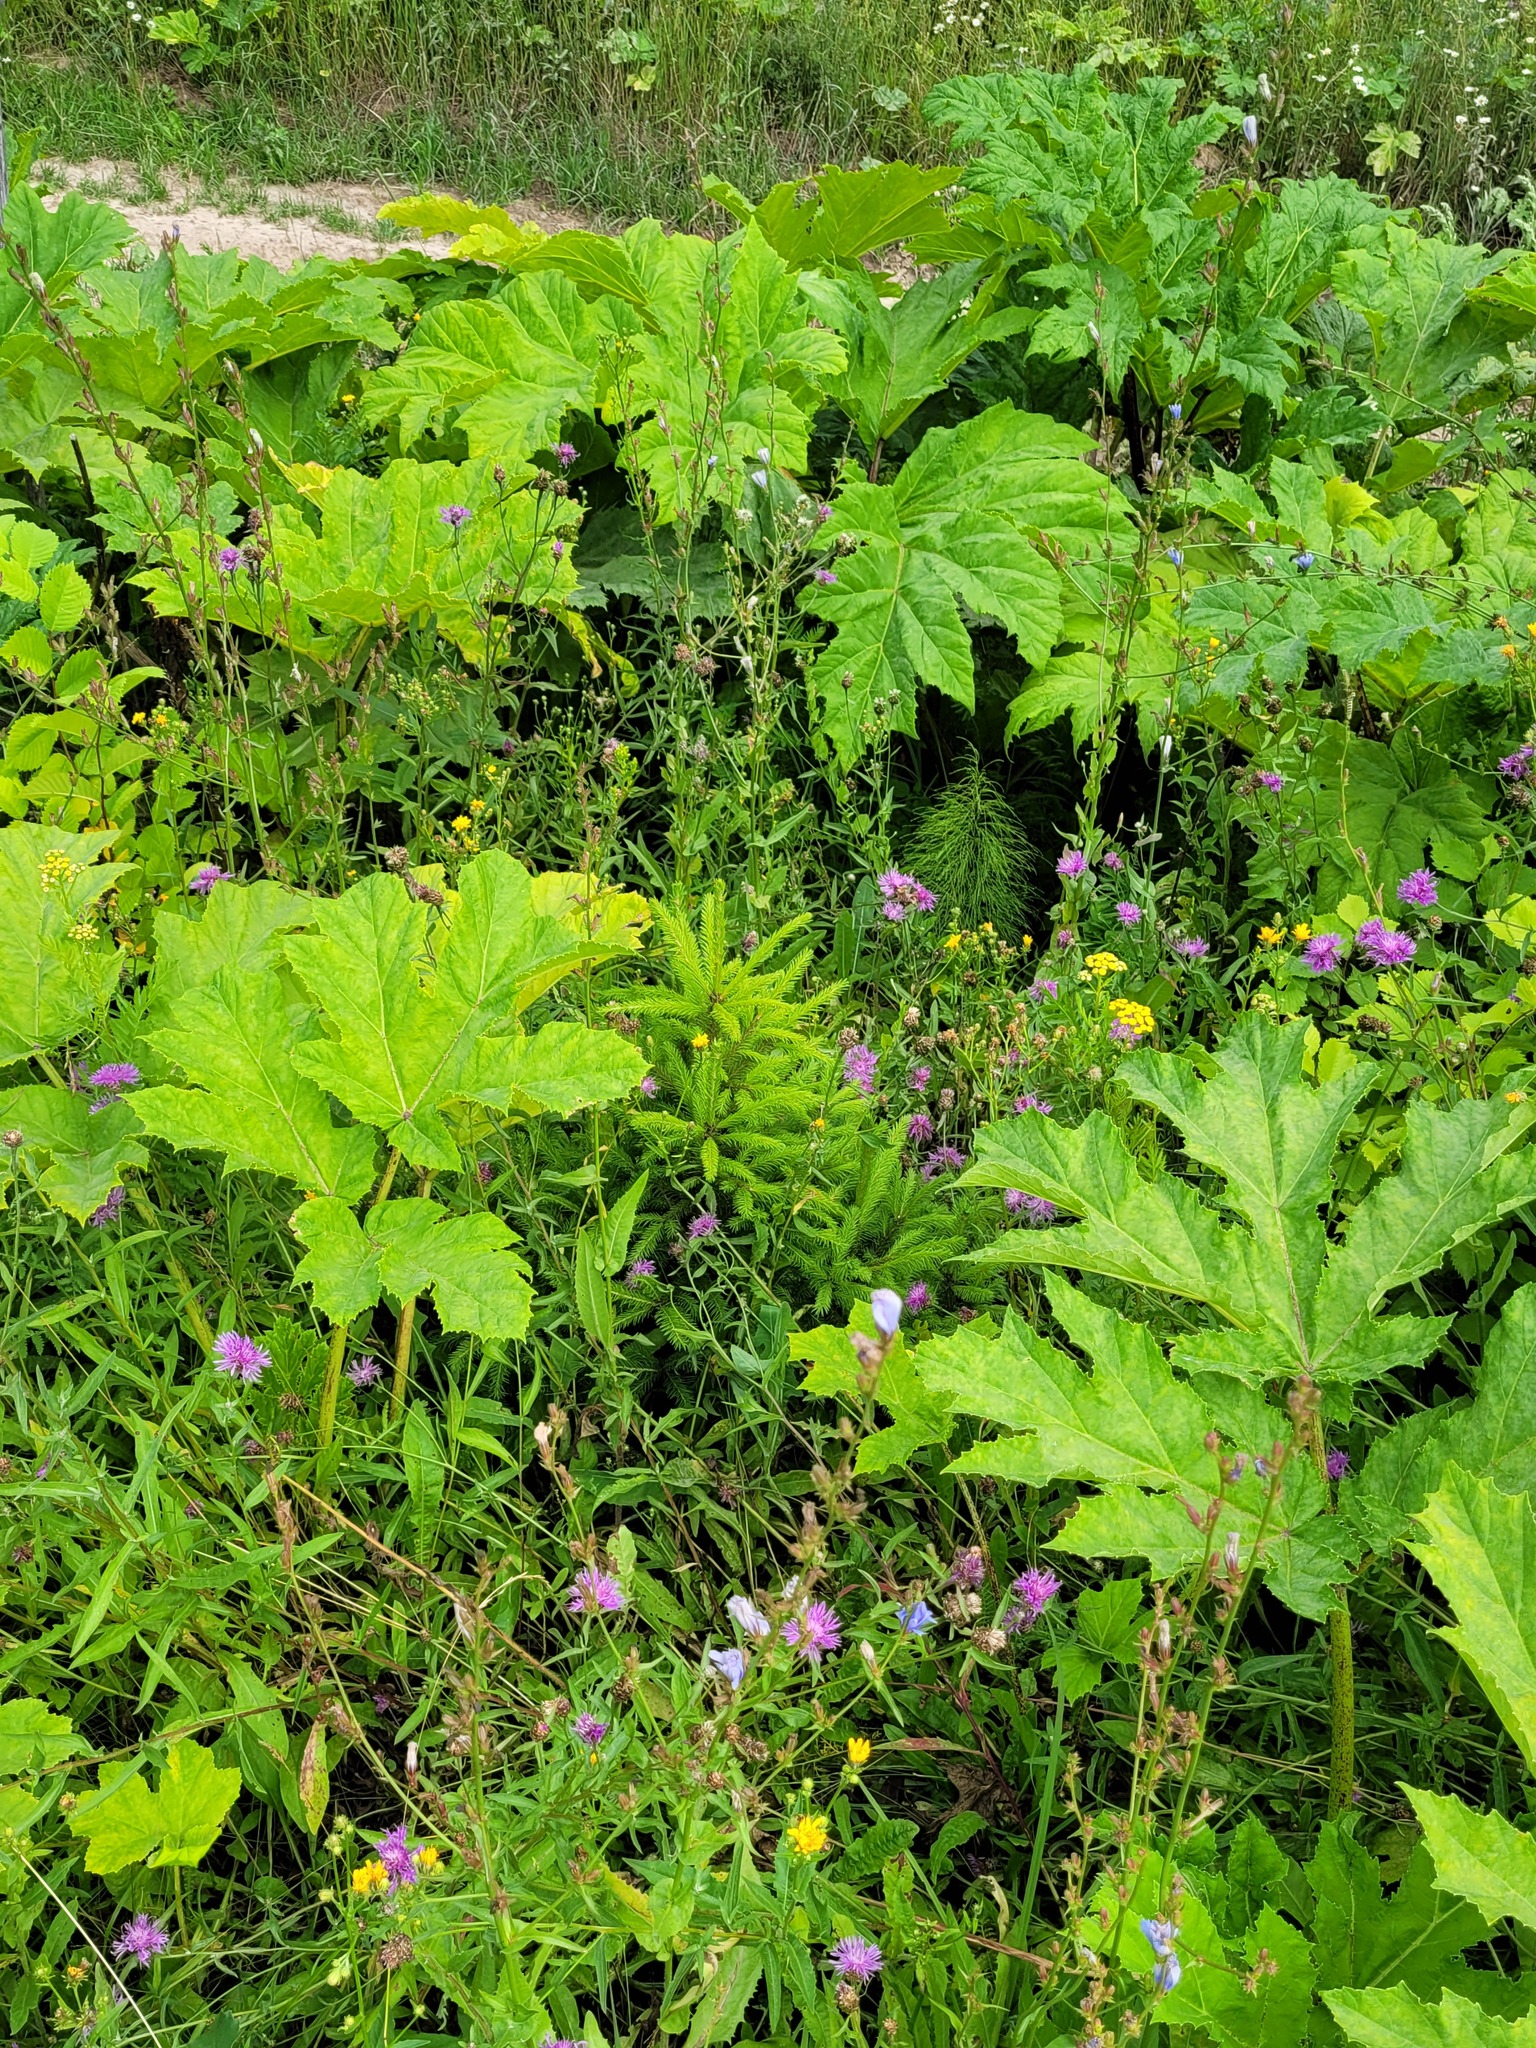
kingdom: Plantae
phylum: Tracheophyta
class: Pinopsida
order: Pinales
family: Pinaceae
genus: Picea
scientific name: Picea abies
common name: Norway spruce
